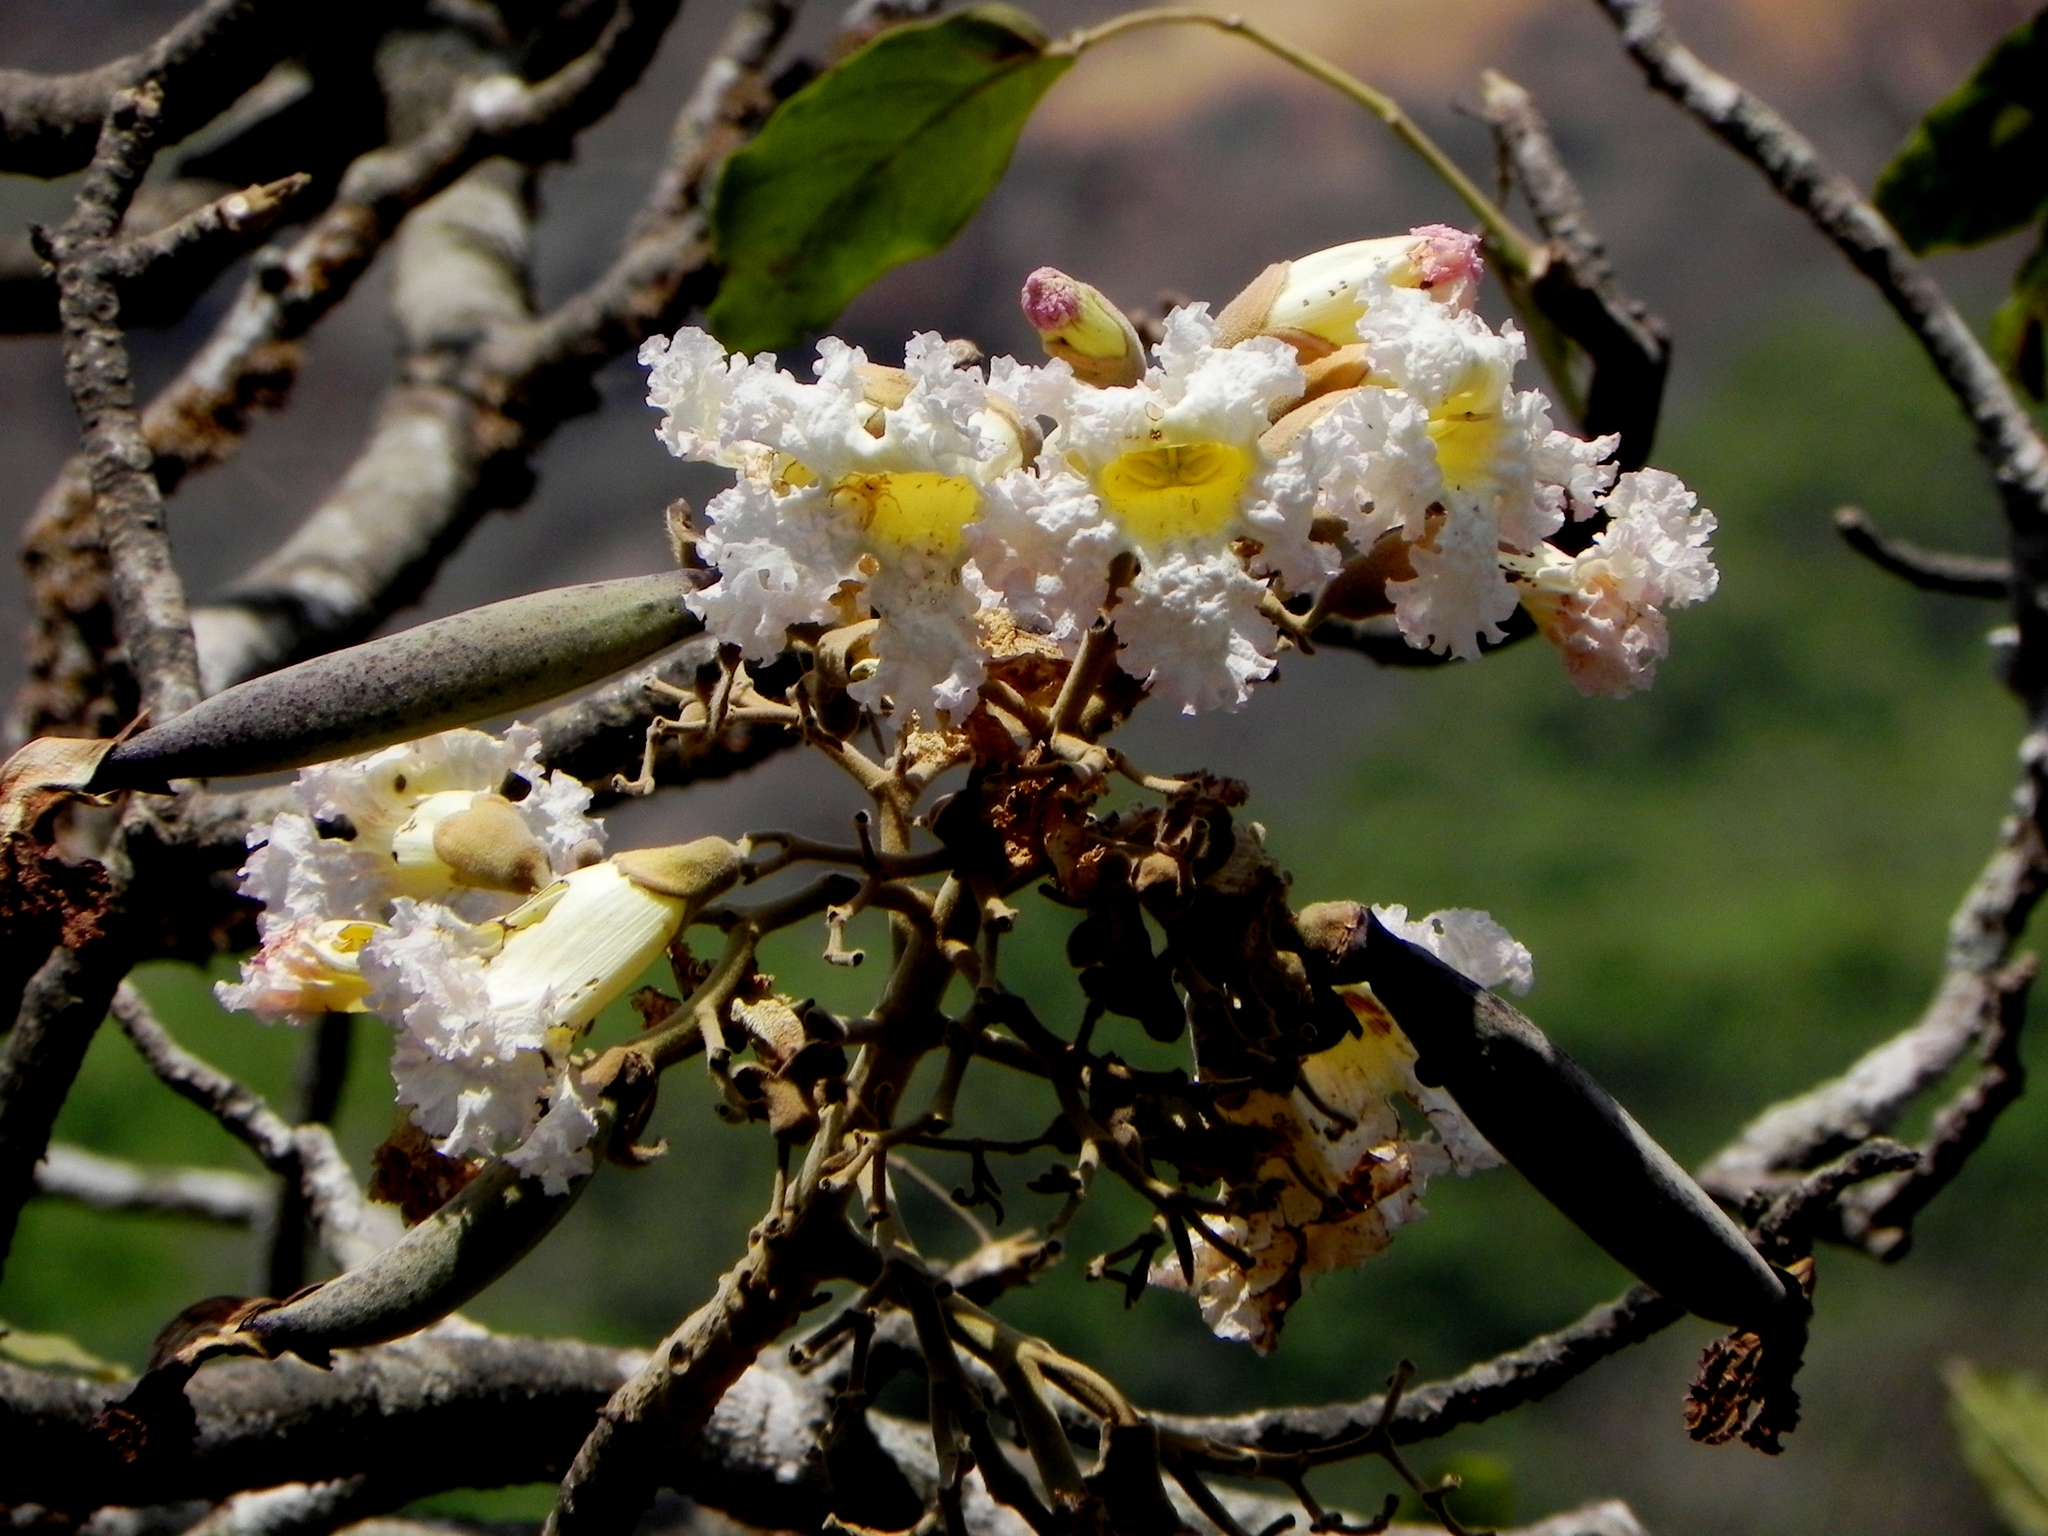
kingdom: Plantae
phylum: Tracheophyta
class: Magnoliopsida
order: Lamiales
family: Bignoniaceae
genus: Heterophragma
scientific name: Heterophragma quadriloculare
